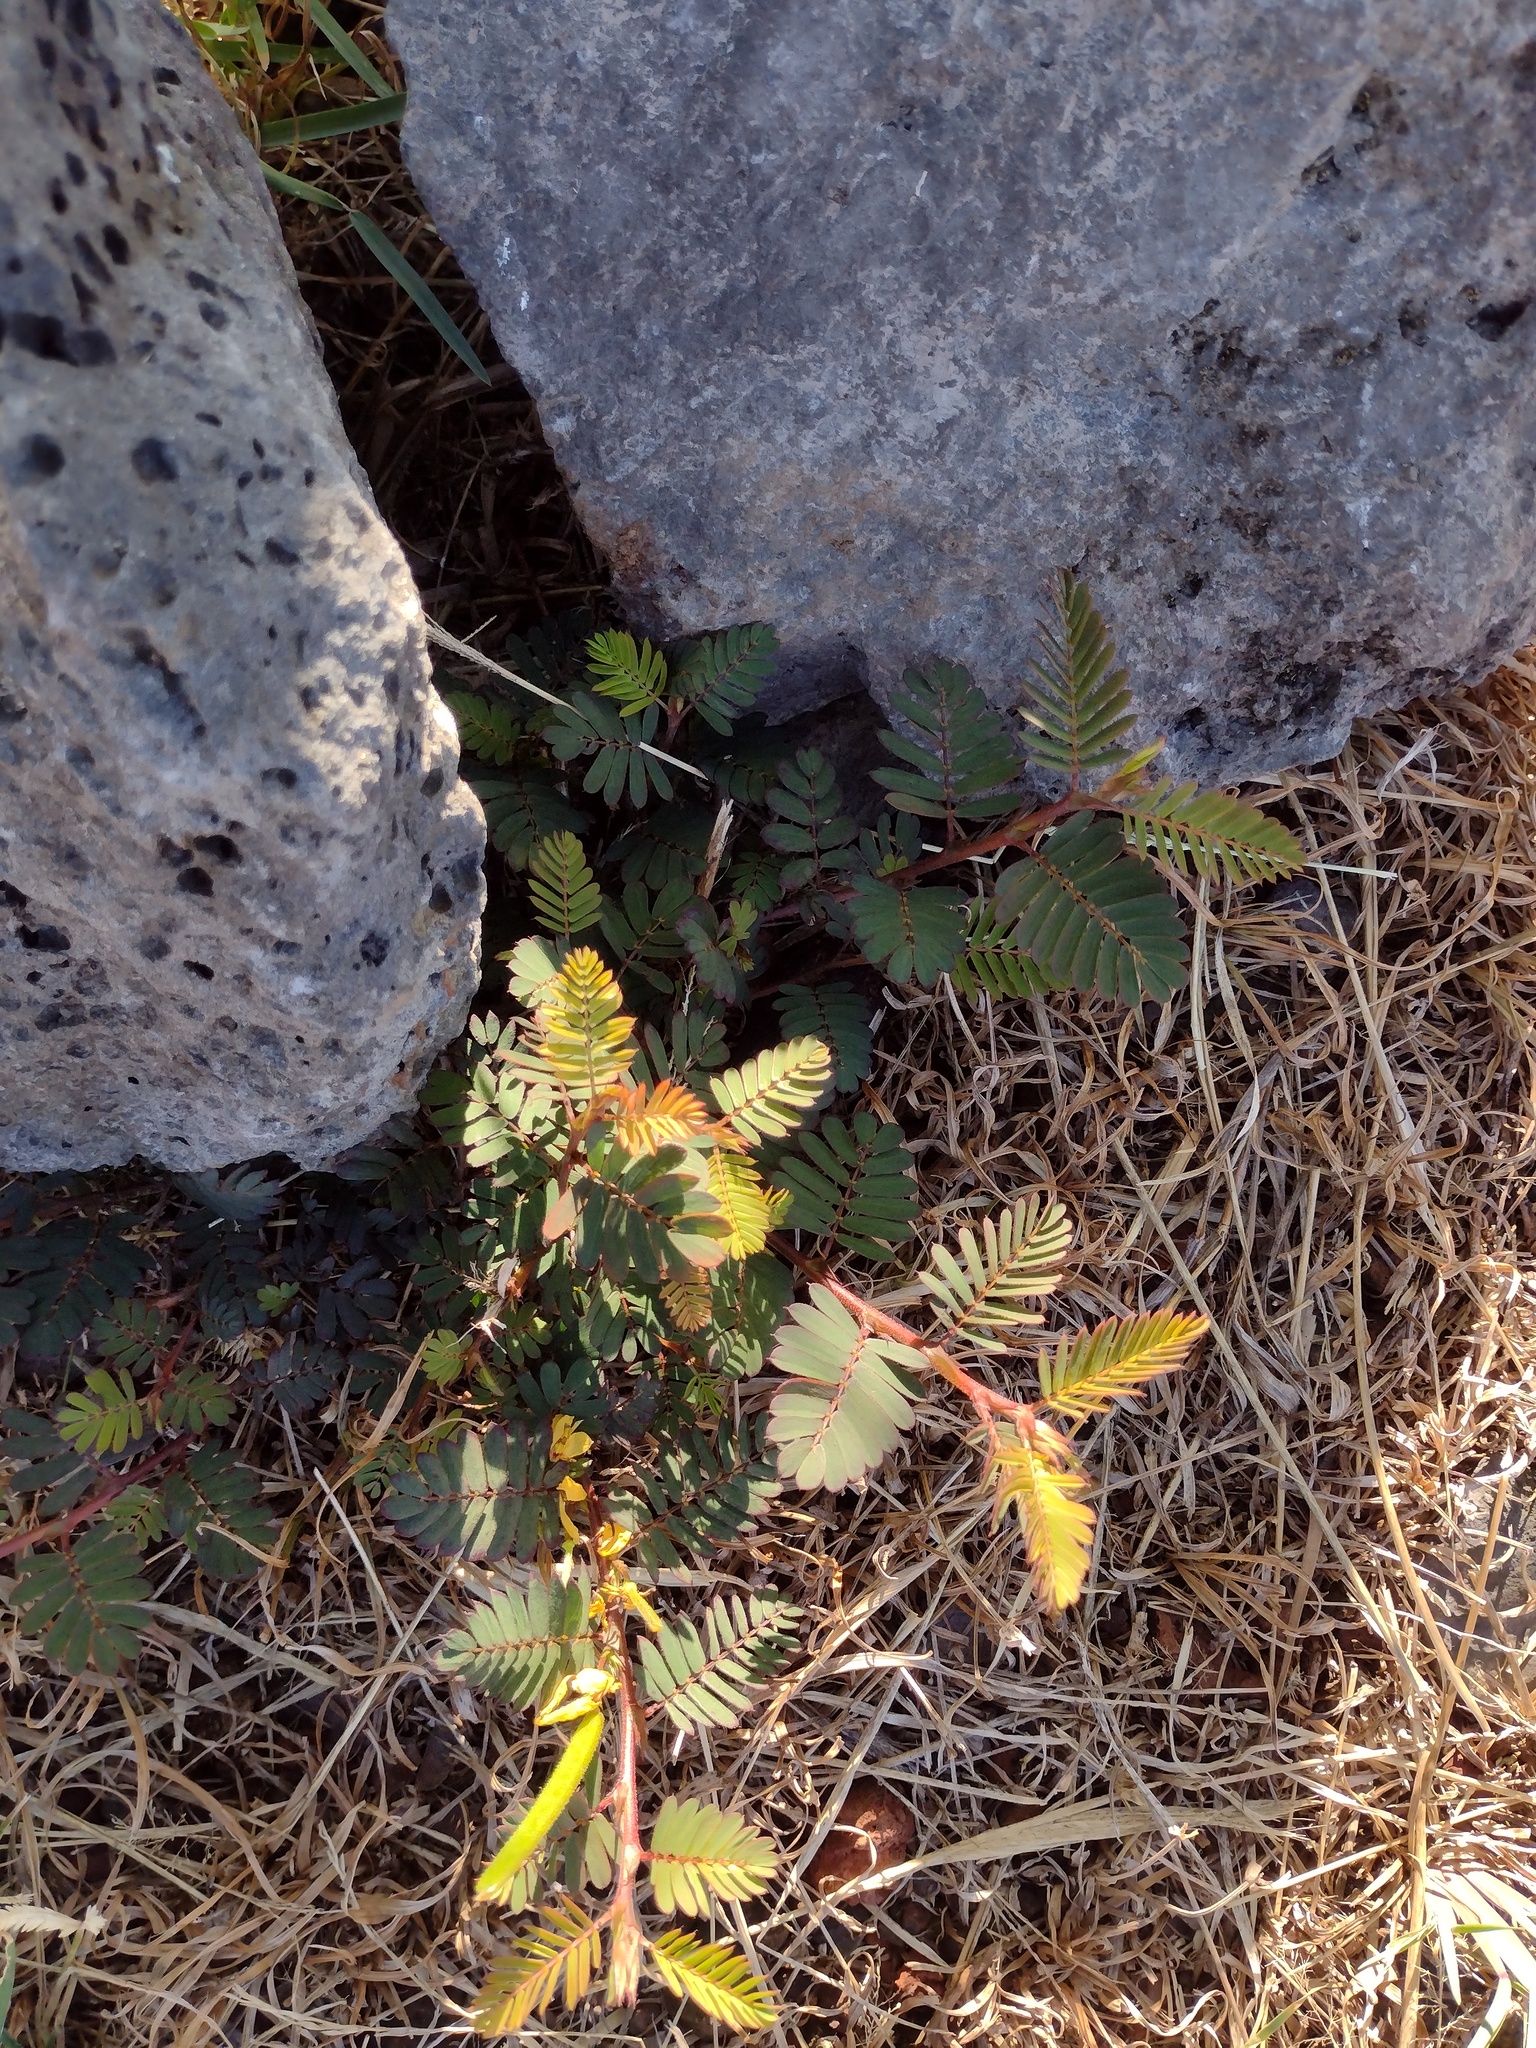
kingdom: Plantae
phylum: Tracheophyta
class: Magnoliopsida
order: Fabales
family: Fabaceae
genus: Chamaecrista
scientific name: Chamaecrista nictitans
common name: Sensitive cassia
